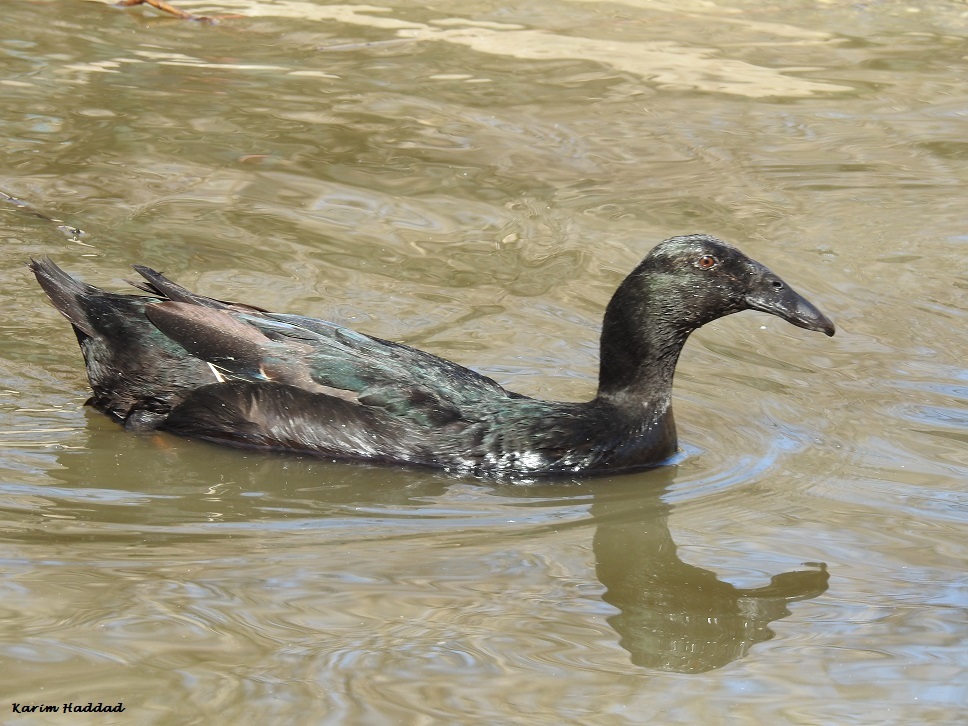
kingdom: Animalia
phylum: Chordata
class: Aves
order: Anseriformes
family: Anatidae
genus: Anas
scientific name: Anas platyrhynchos
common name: Mallard
